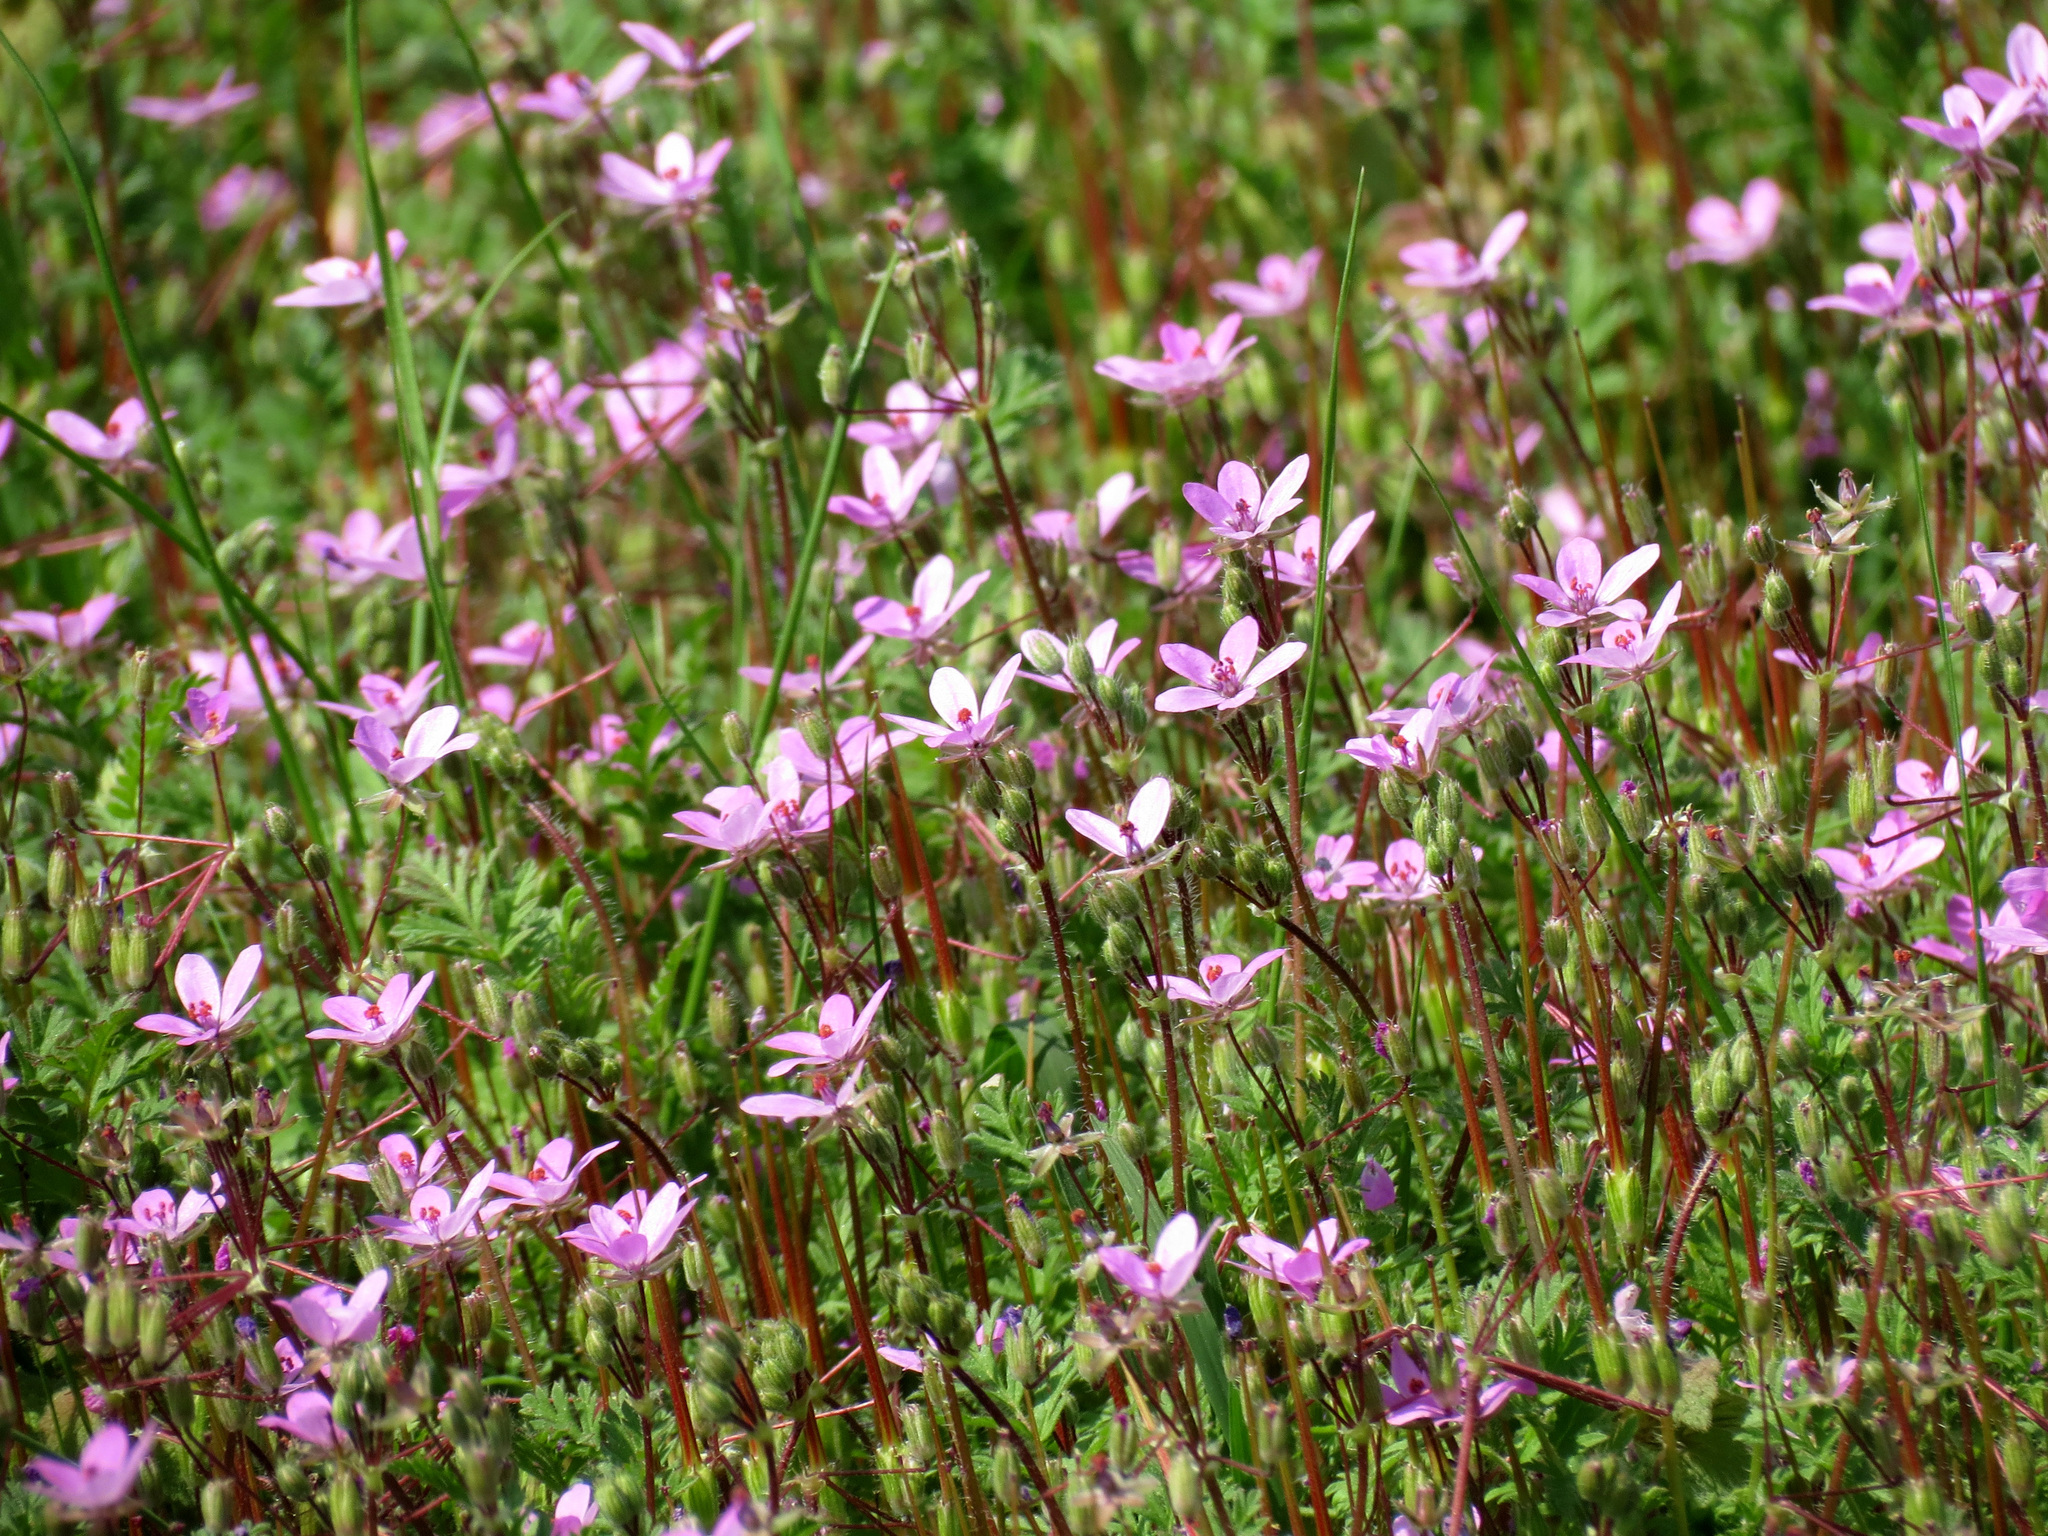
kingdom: Plantae
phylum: Tracheophyta
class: Magnoliopsida
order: Geraniales
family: Geraniaceae
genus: Erodium
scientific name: Erodium cicutarium
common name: Common stork's-bill
